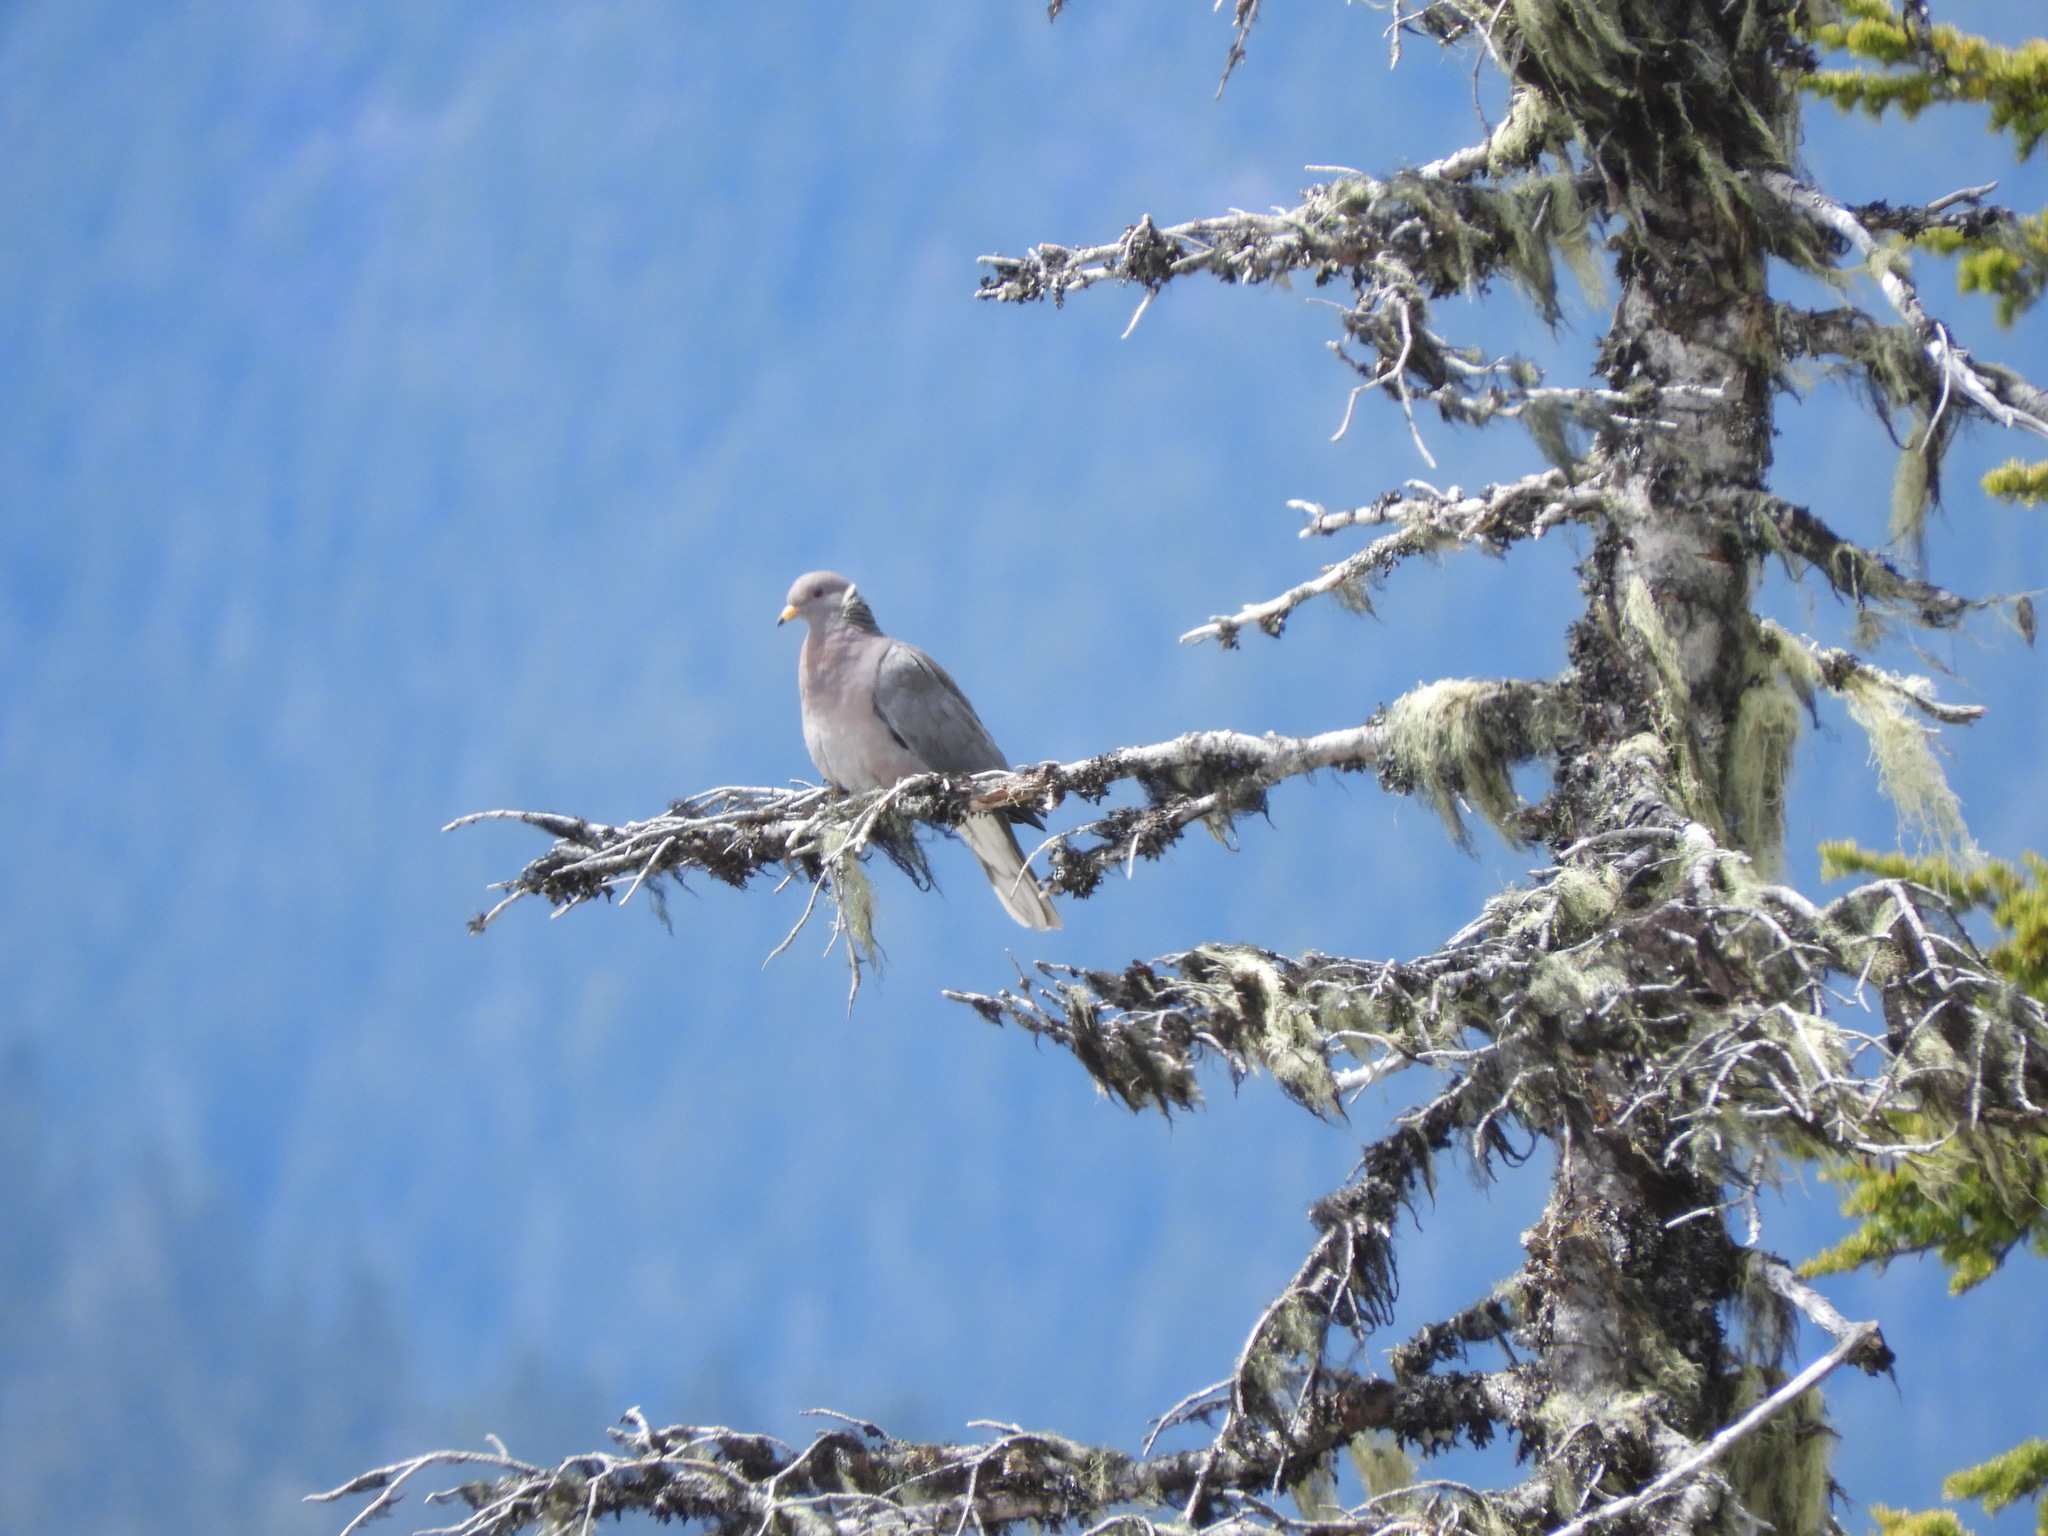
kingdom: Animalia
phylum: Chordata
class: Aves
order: Columbiformes
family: Columbidae
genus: Patagioenas
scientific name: Patagioenas fasciata
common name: Band-tailed pigeon
